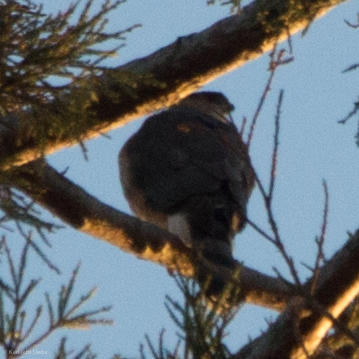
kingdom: Animalia
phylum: Chordata
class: Aves
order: Accipitriformes
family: Accipitridae
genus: Accipiter
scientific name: Accipiter cooperii
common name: Cooper's hawk
